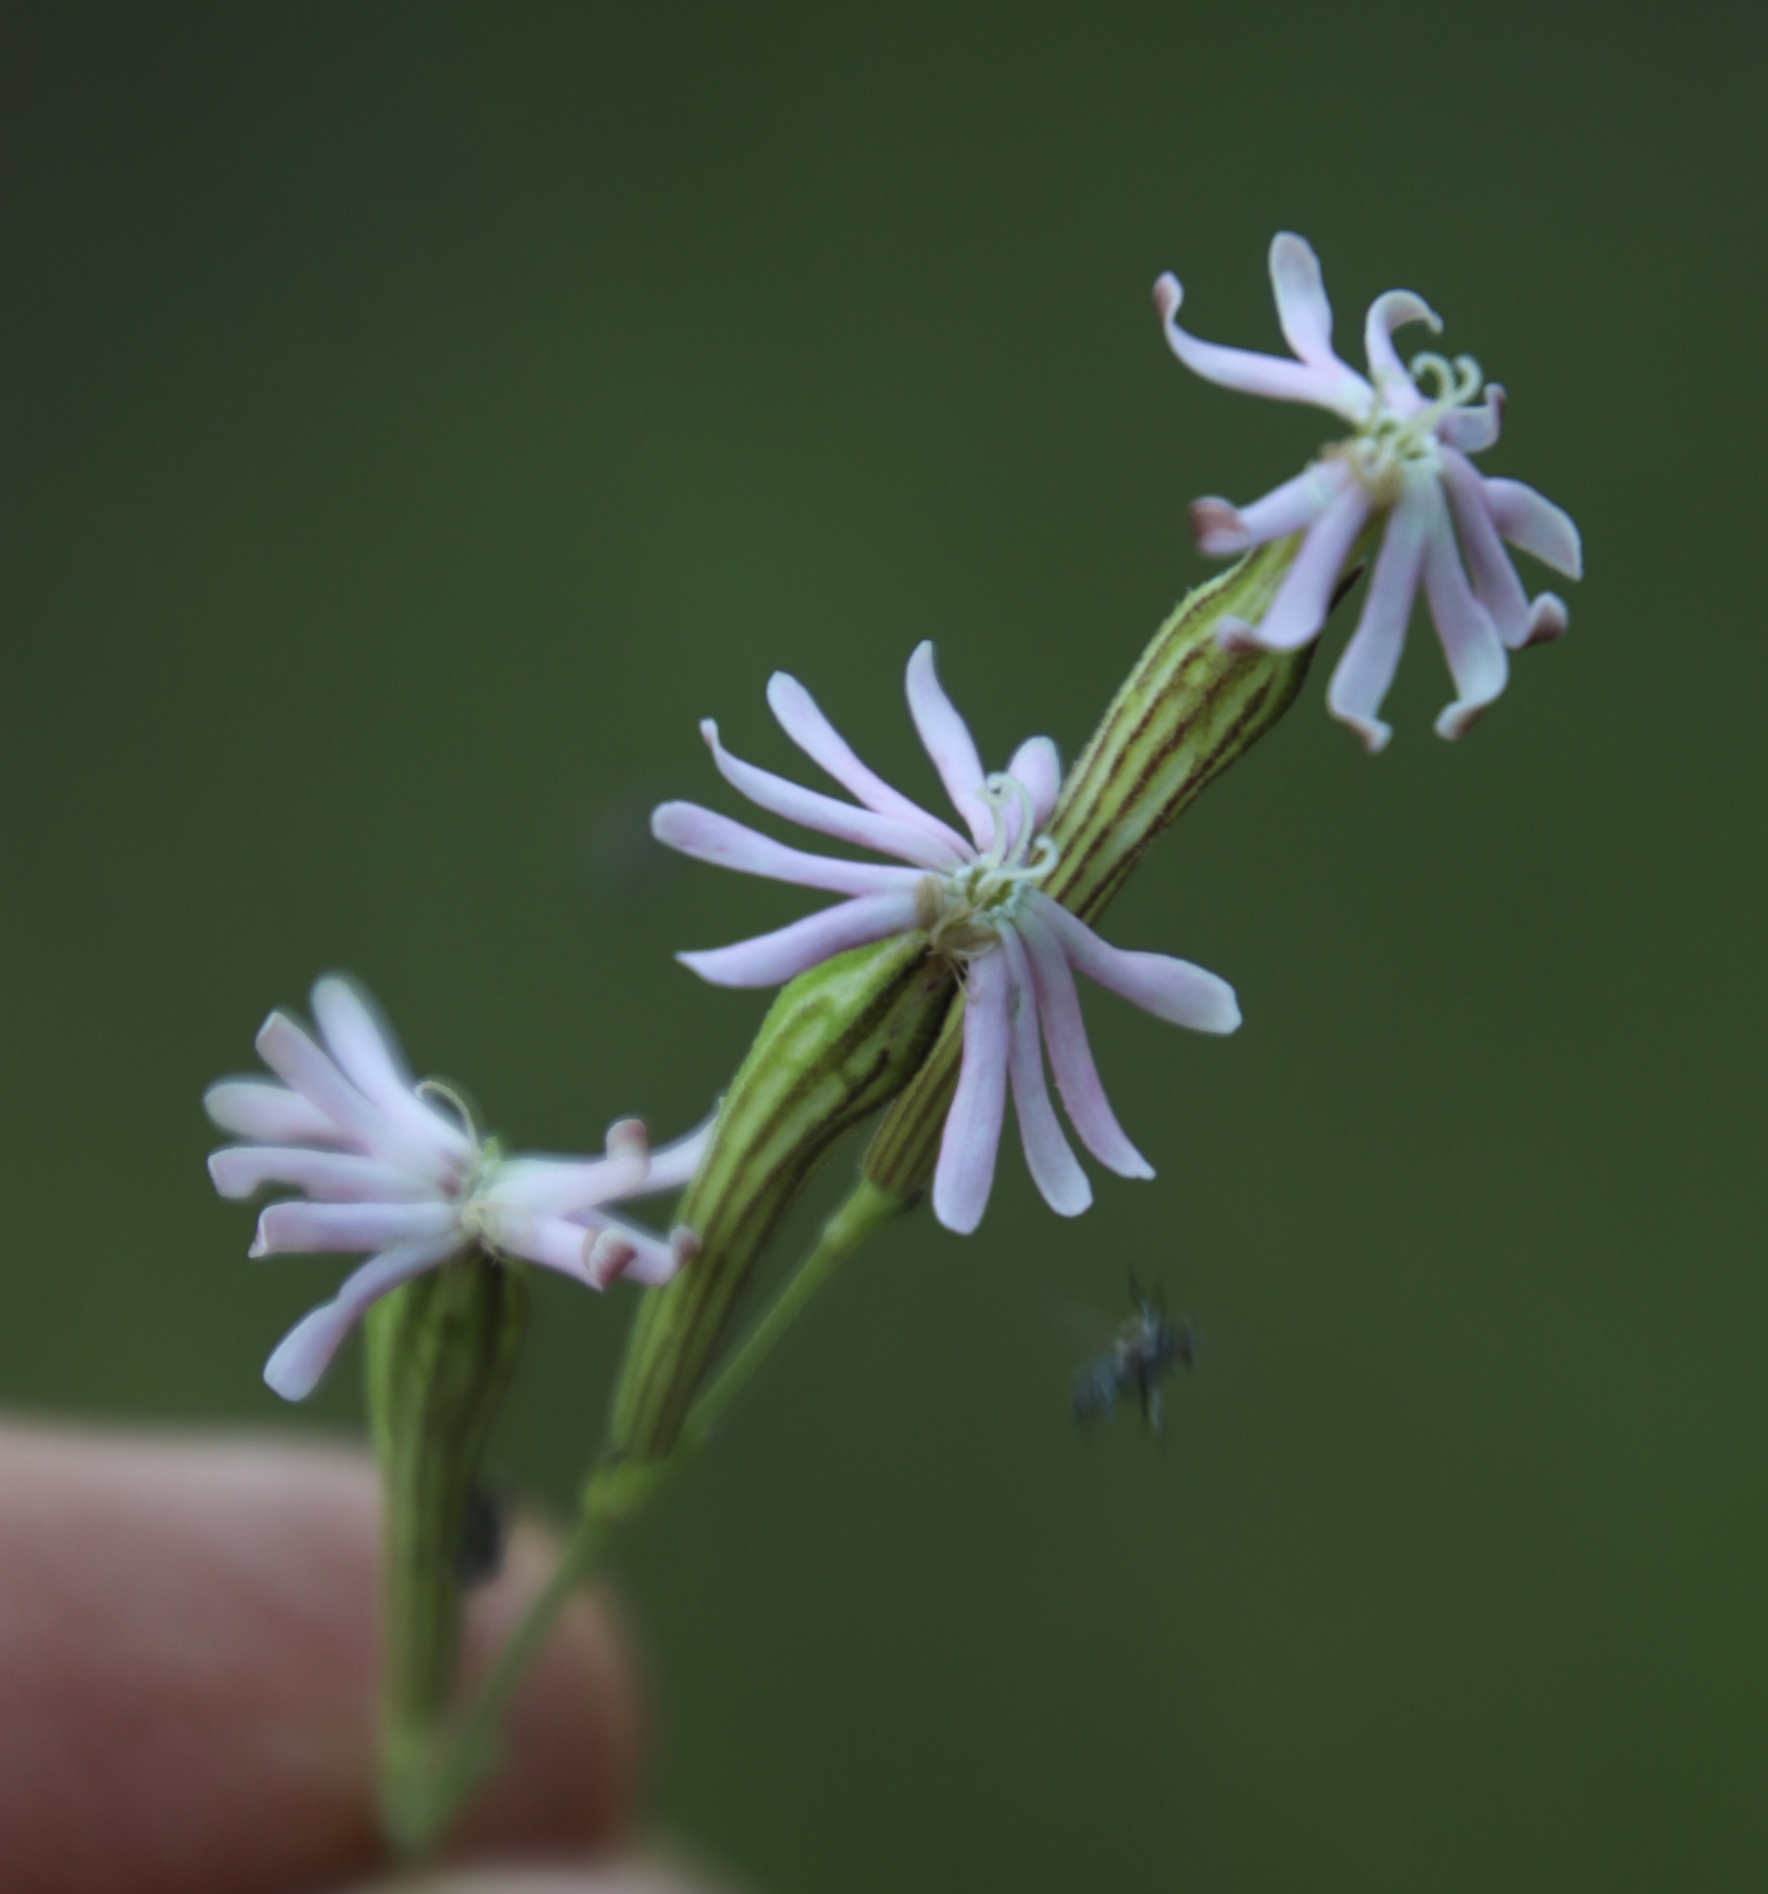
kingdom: Plantae
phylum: Tracheophyta
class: Magnoliopsida
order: Caryophyllales
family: Caryophyllaceae
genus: Silene
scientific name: Silene burchellii
